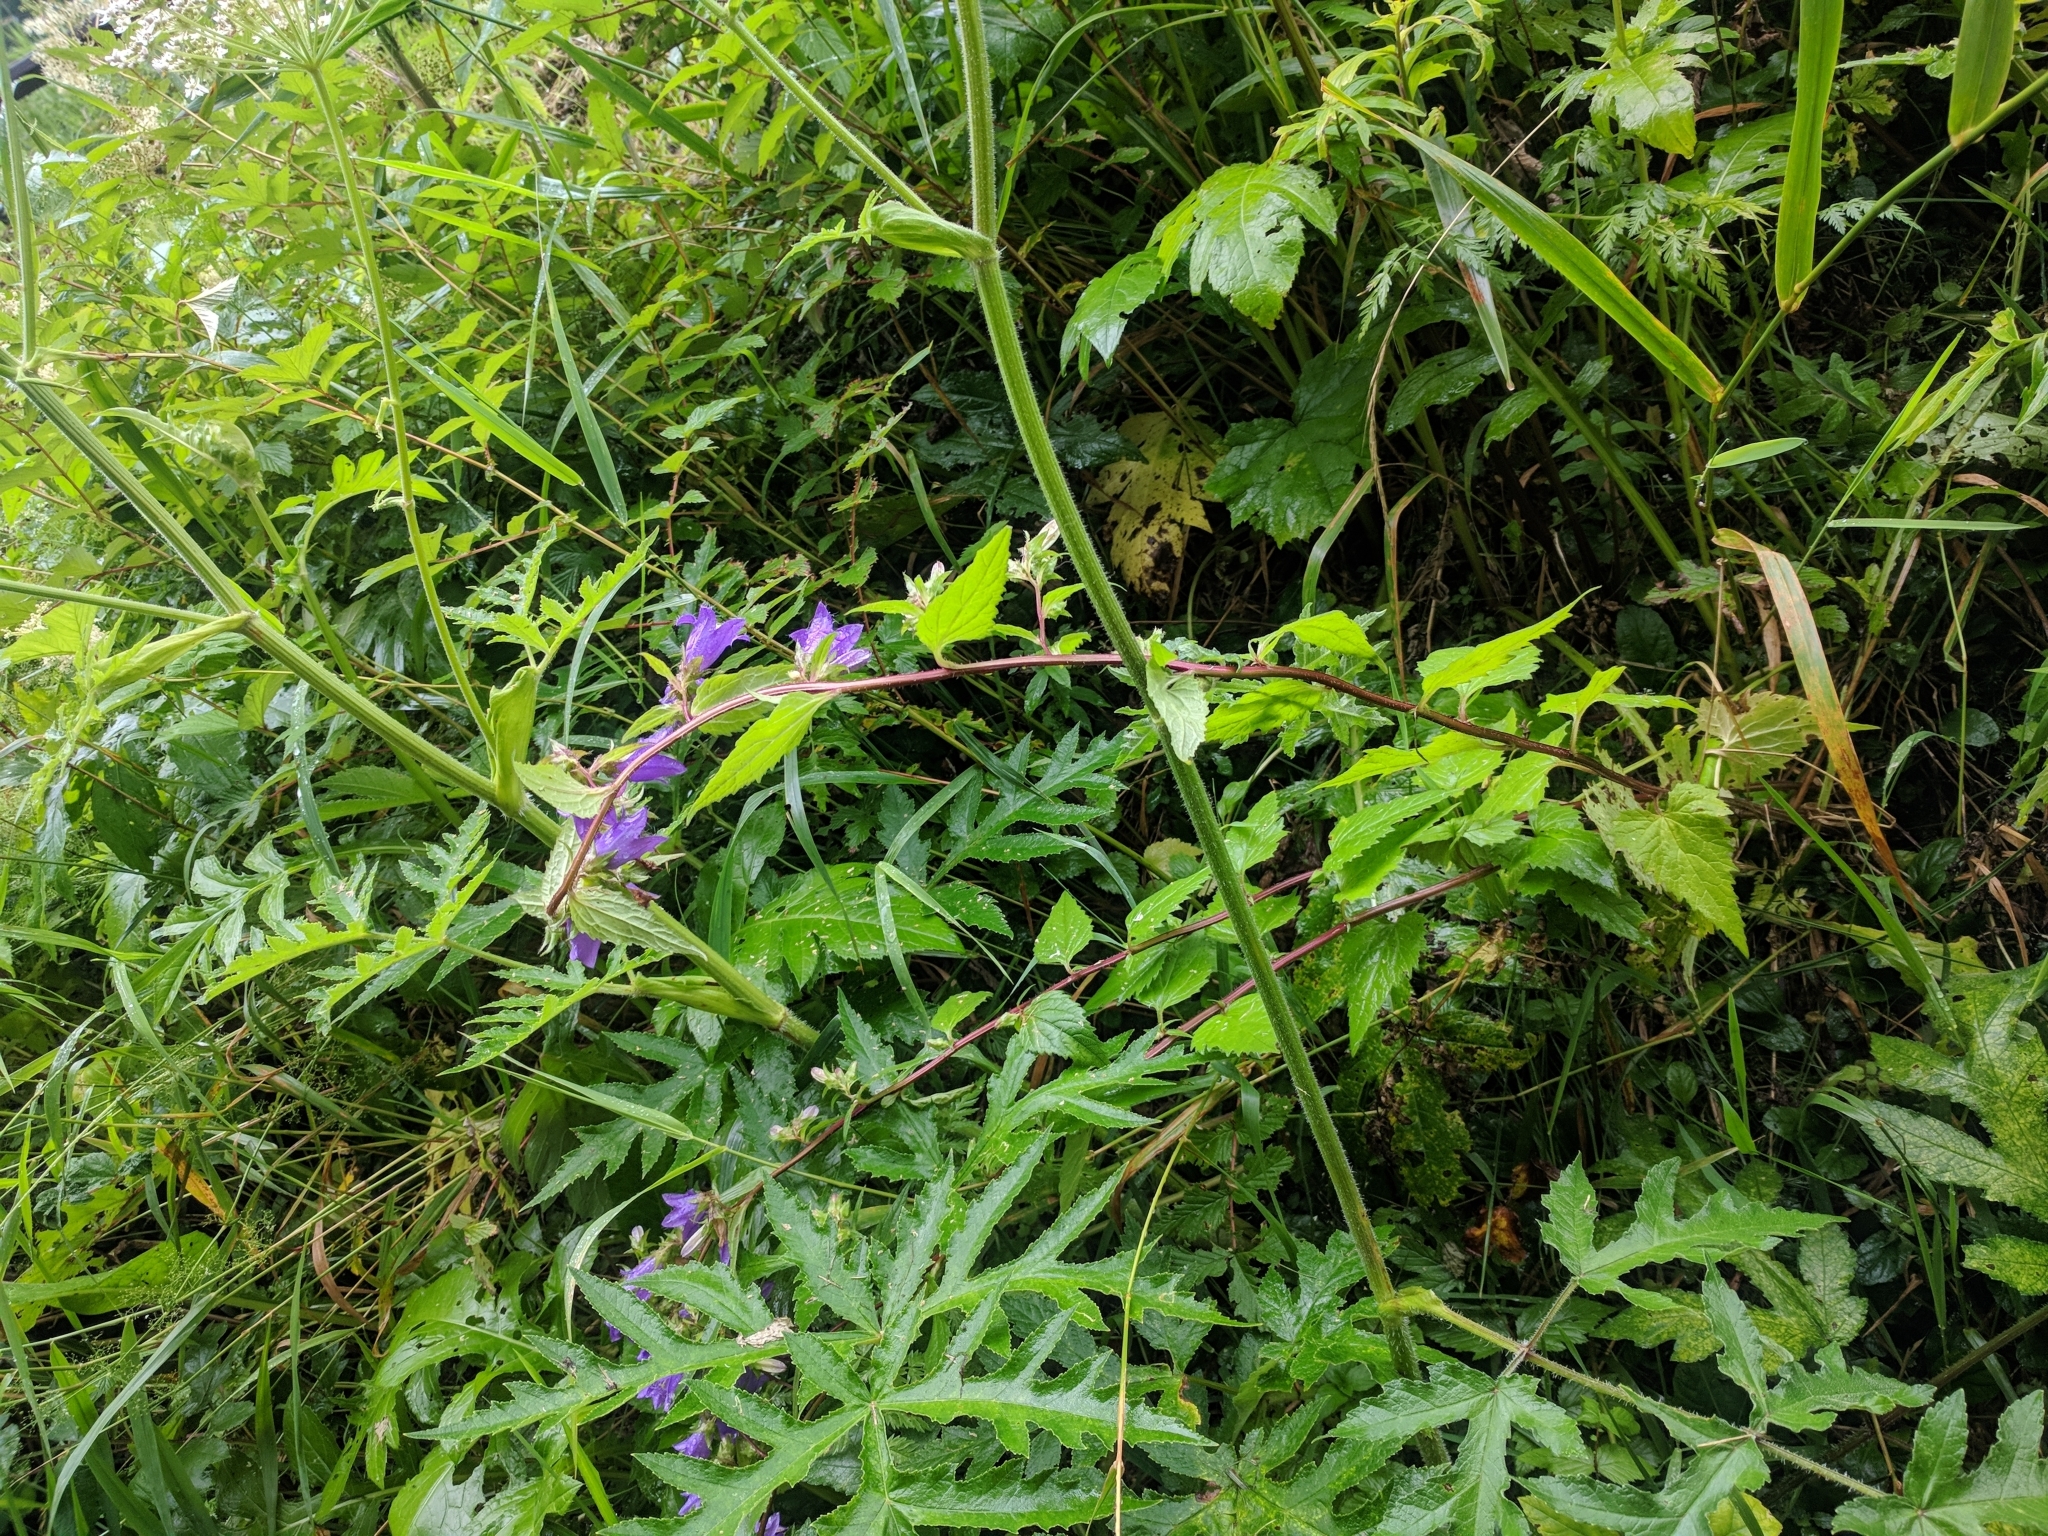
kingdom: Plantae
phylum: Tracheophyta
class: Magnoliopsida
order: Asterales
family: Campanulaceae
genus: Campanula
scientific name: Campanula trachelium
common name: Nettle-leaved bellflower
